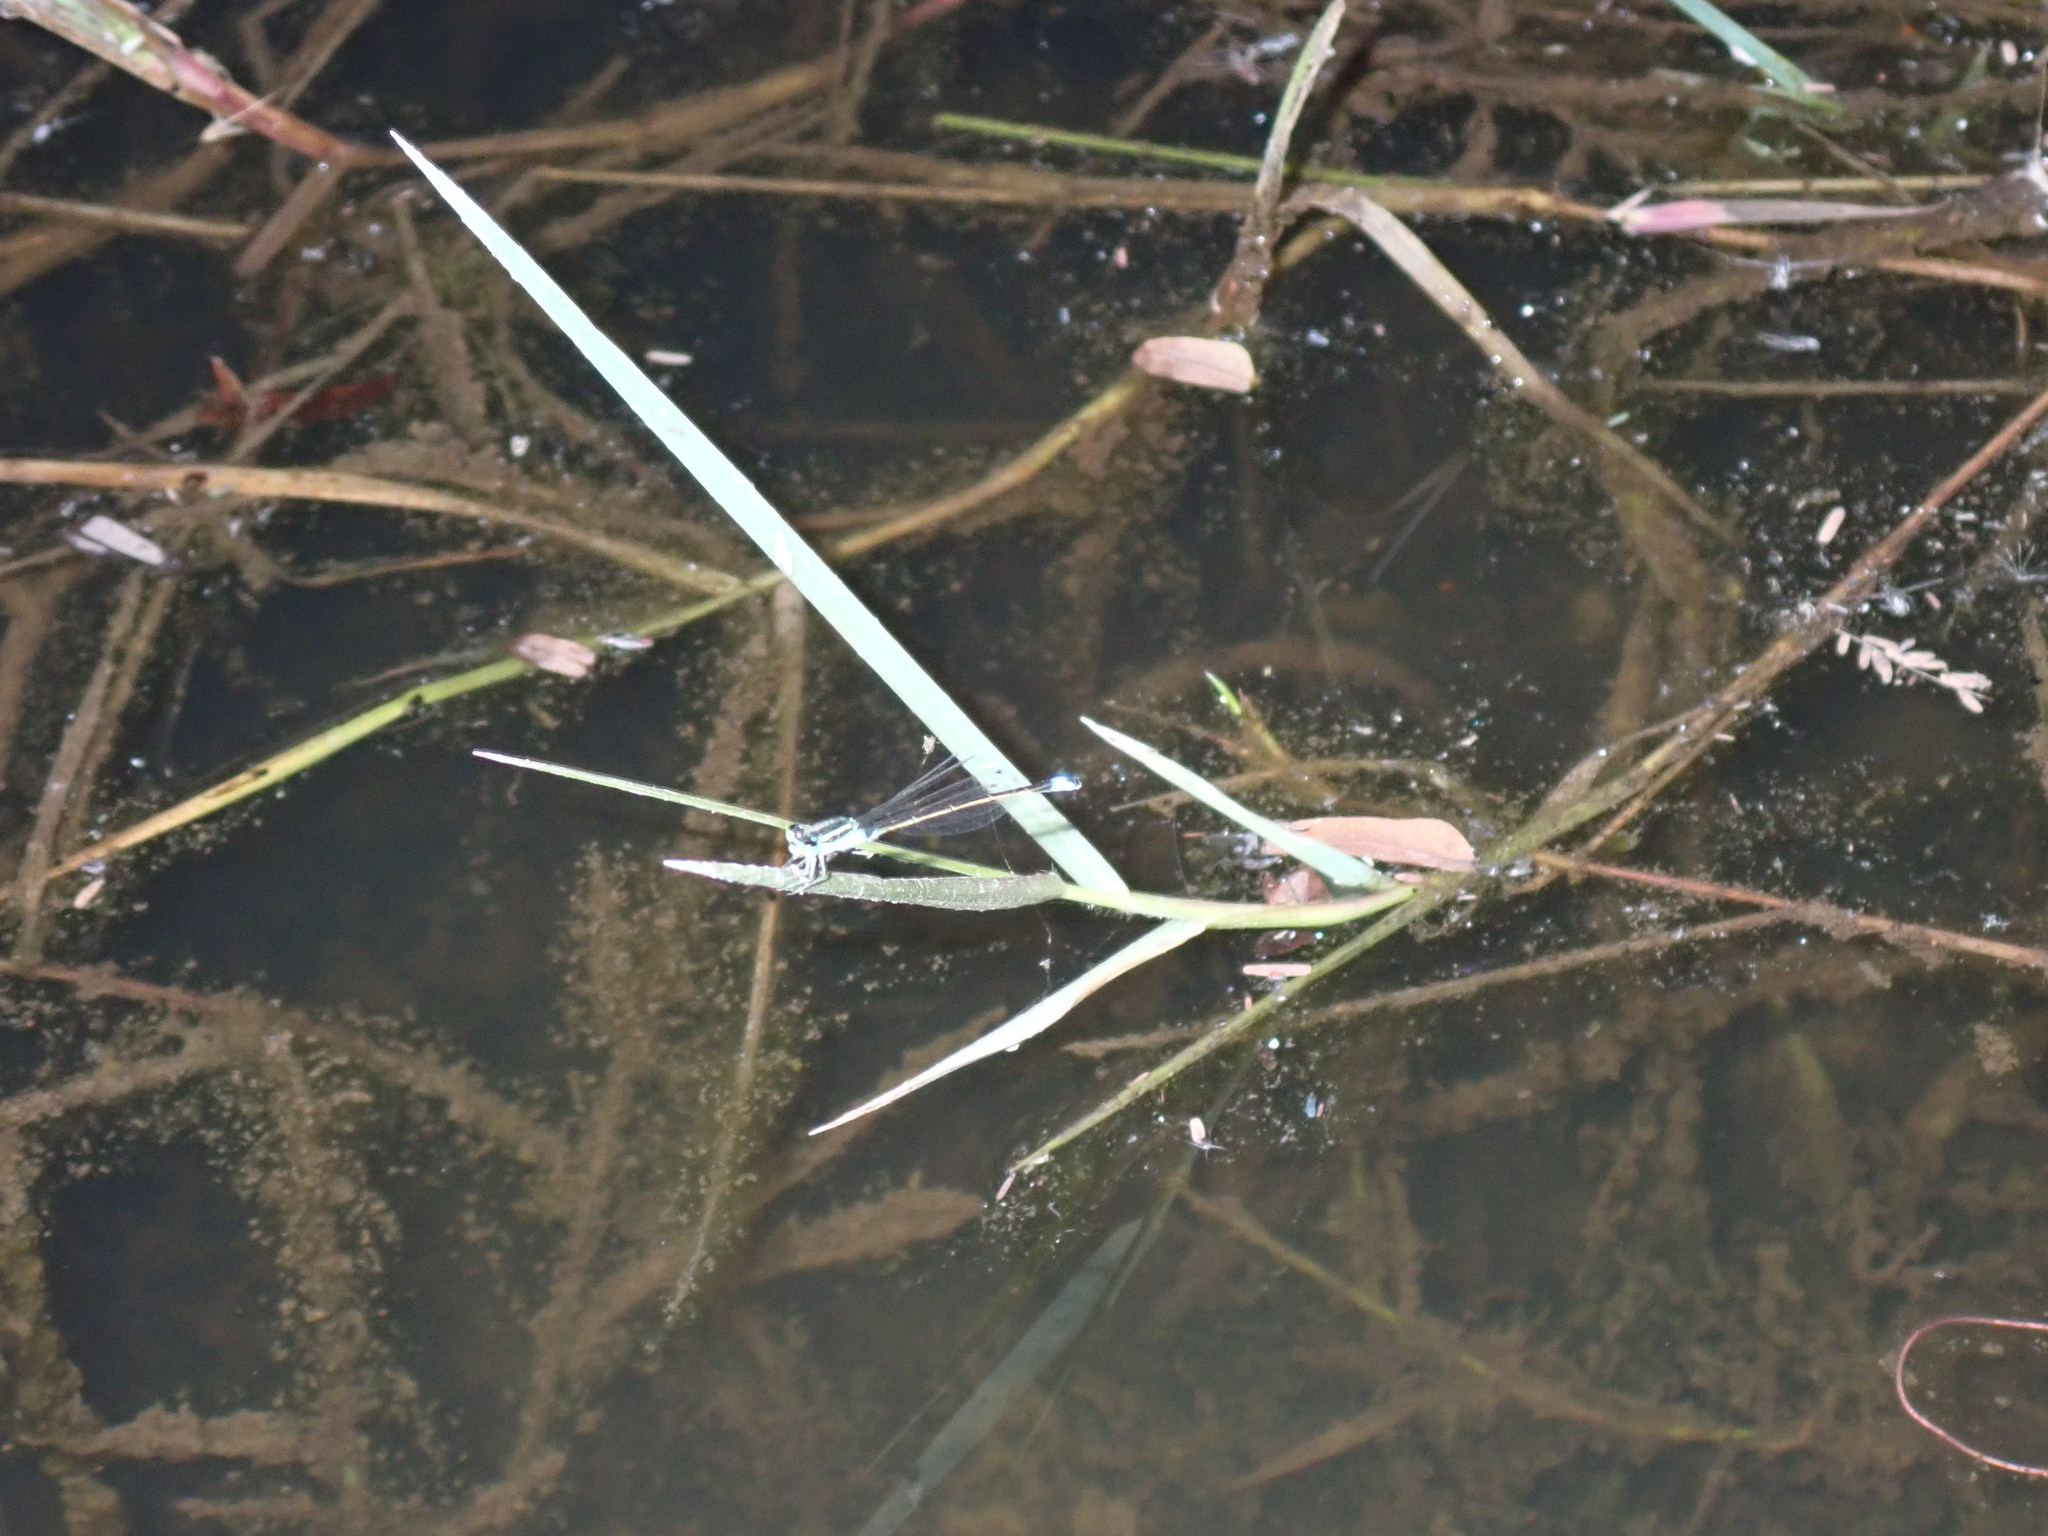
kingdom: Animalia
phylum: Arthropoda
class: Insecta
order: Odonata
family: Coenagrionidae
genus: Ischnura
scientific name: Ischnura senegalensis
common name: Tropical bluetail
